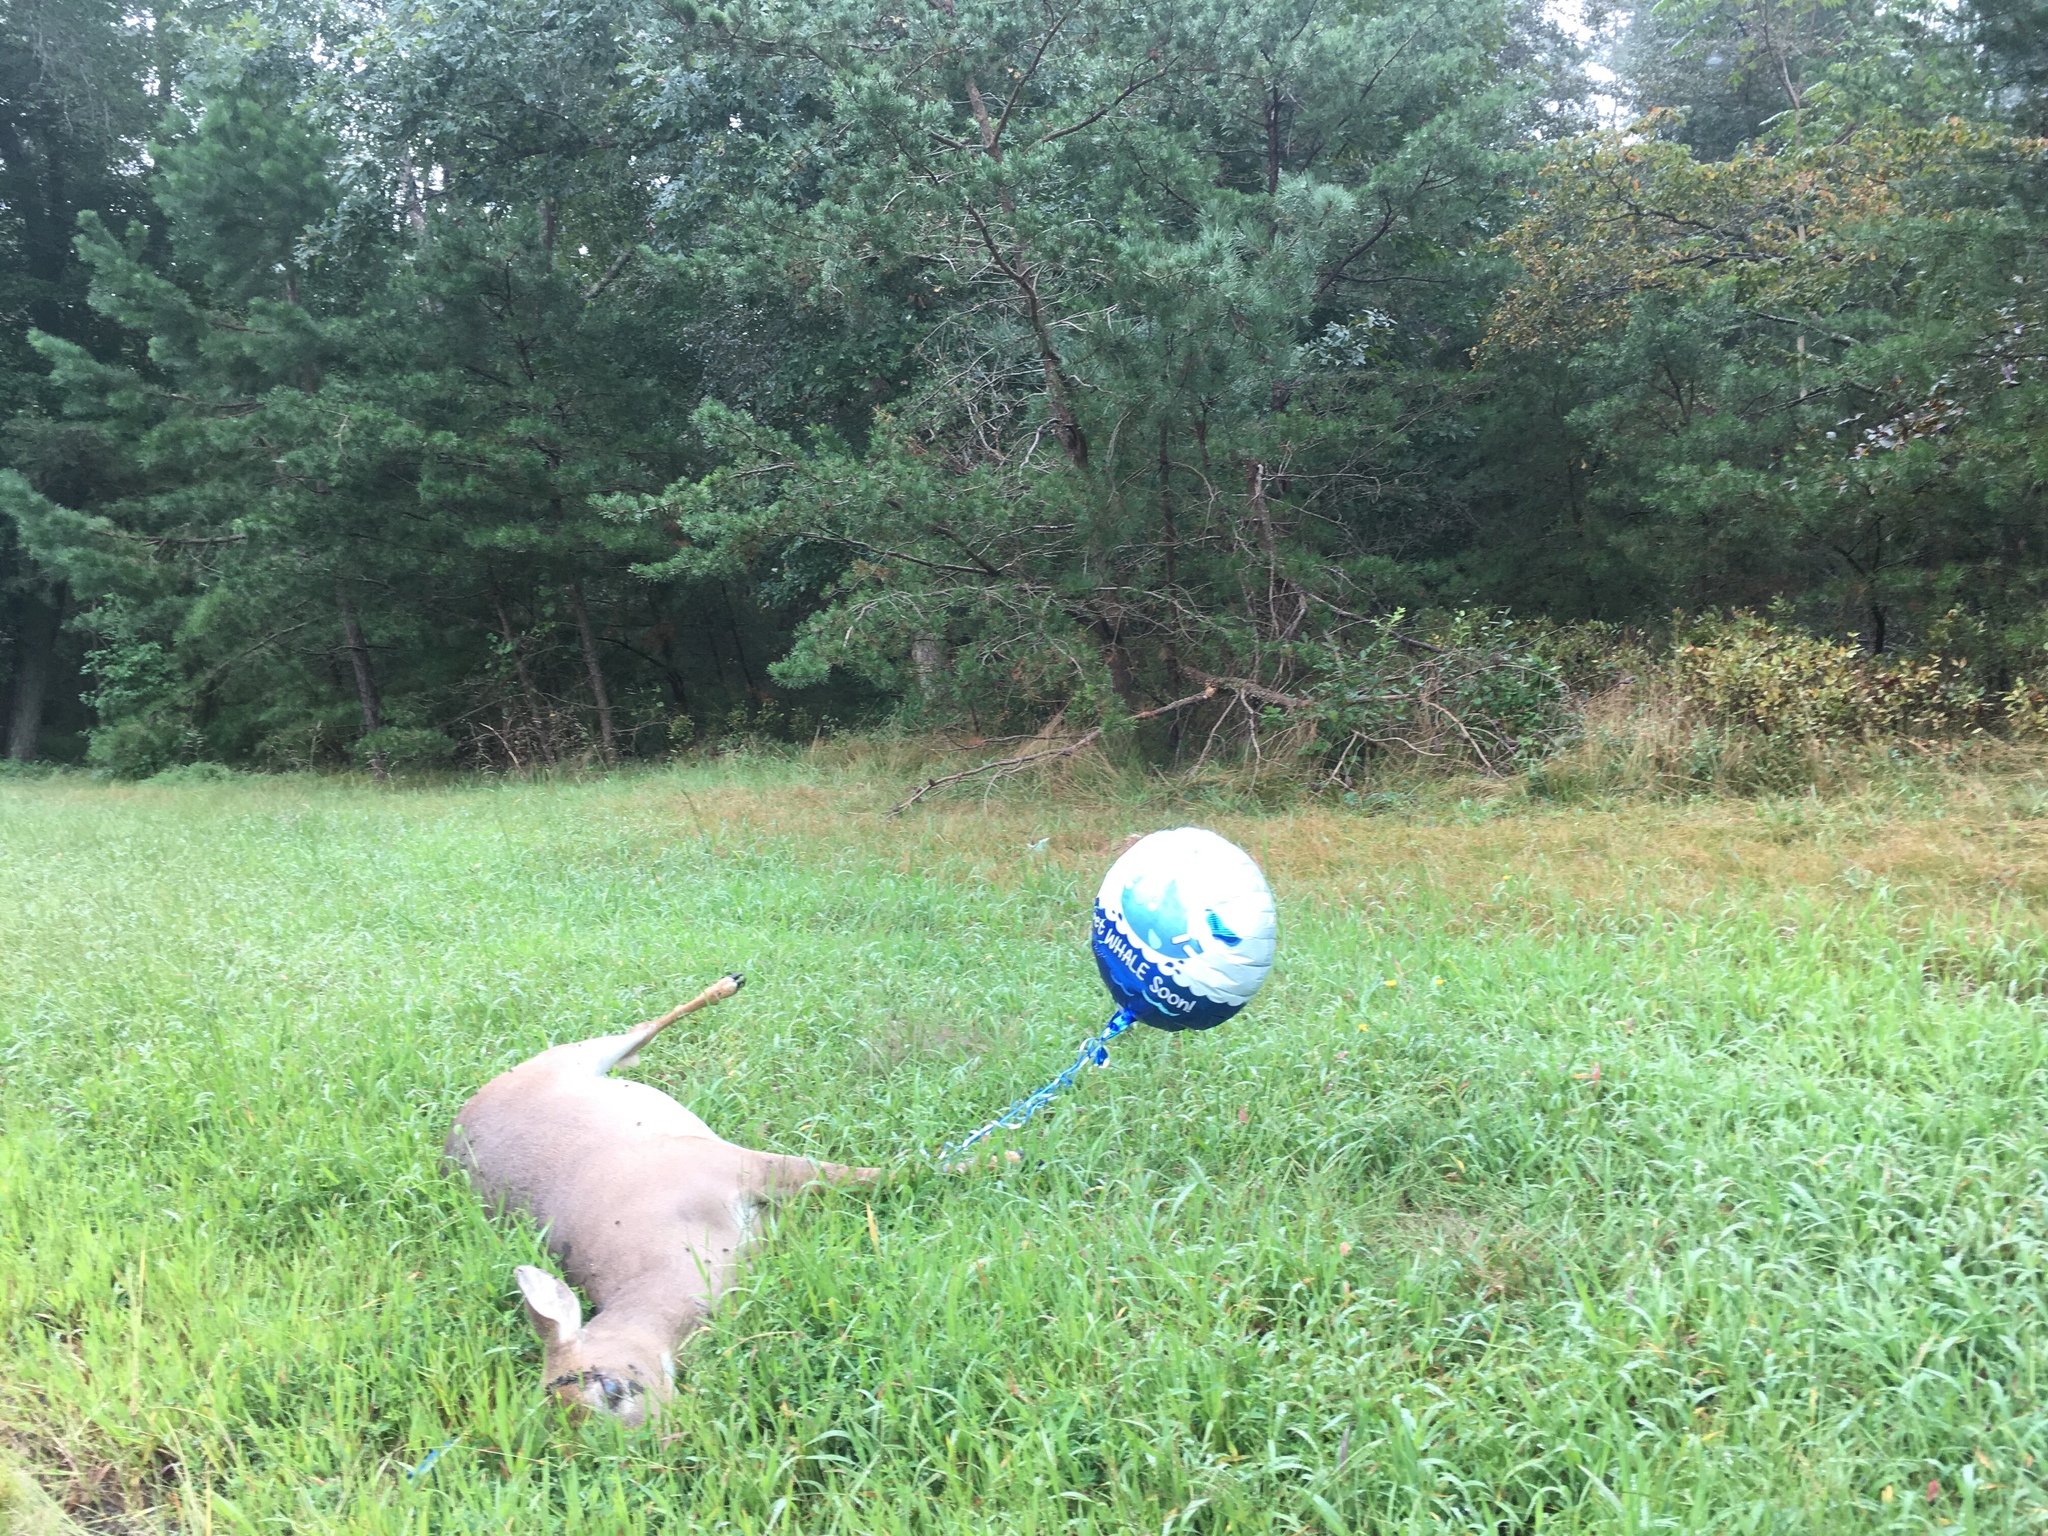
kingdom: Animalia
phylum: Chordata
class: Mammalia
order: Artiodactyla
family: Cervidae
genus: Odocoileus
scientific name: Odocoileus virginianus
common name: White-tailed deer
